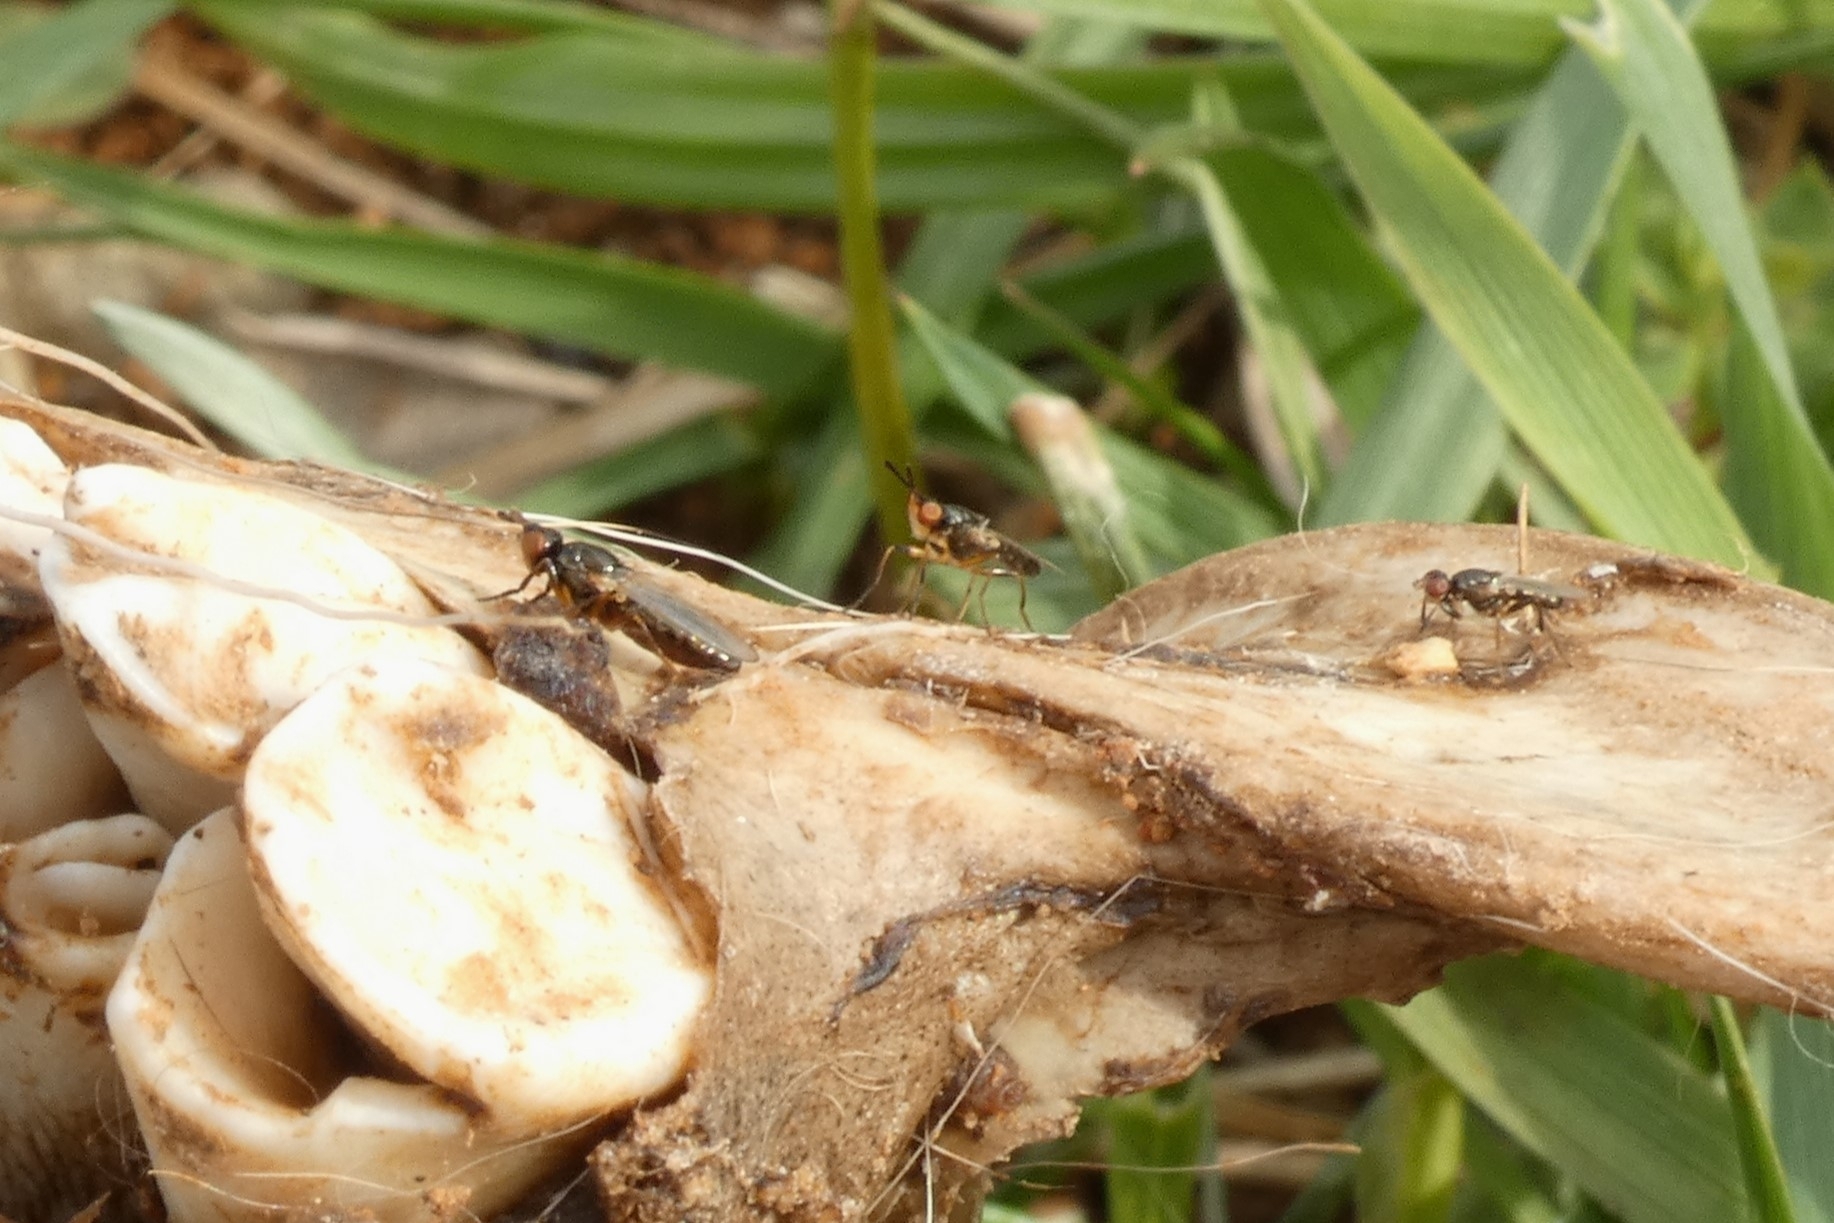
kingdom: Animalia
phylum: Arthropoda
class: Insecta
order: Diptera
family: Piophilidae
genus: Prochyliza
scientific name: Prochyliza xanthostoma
